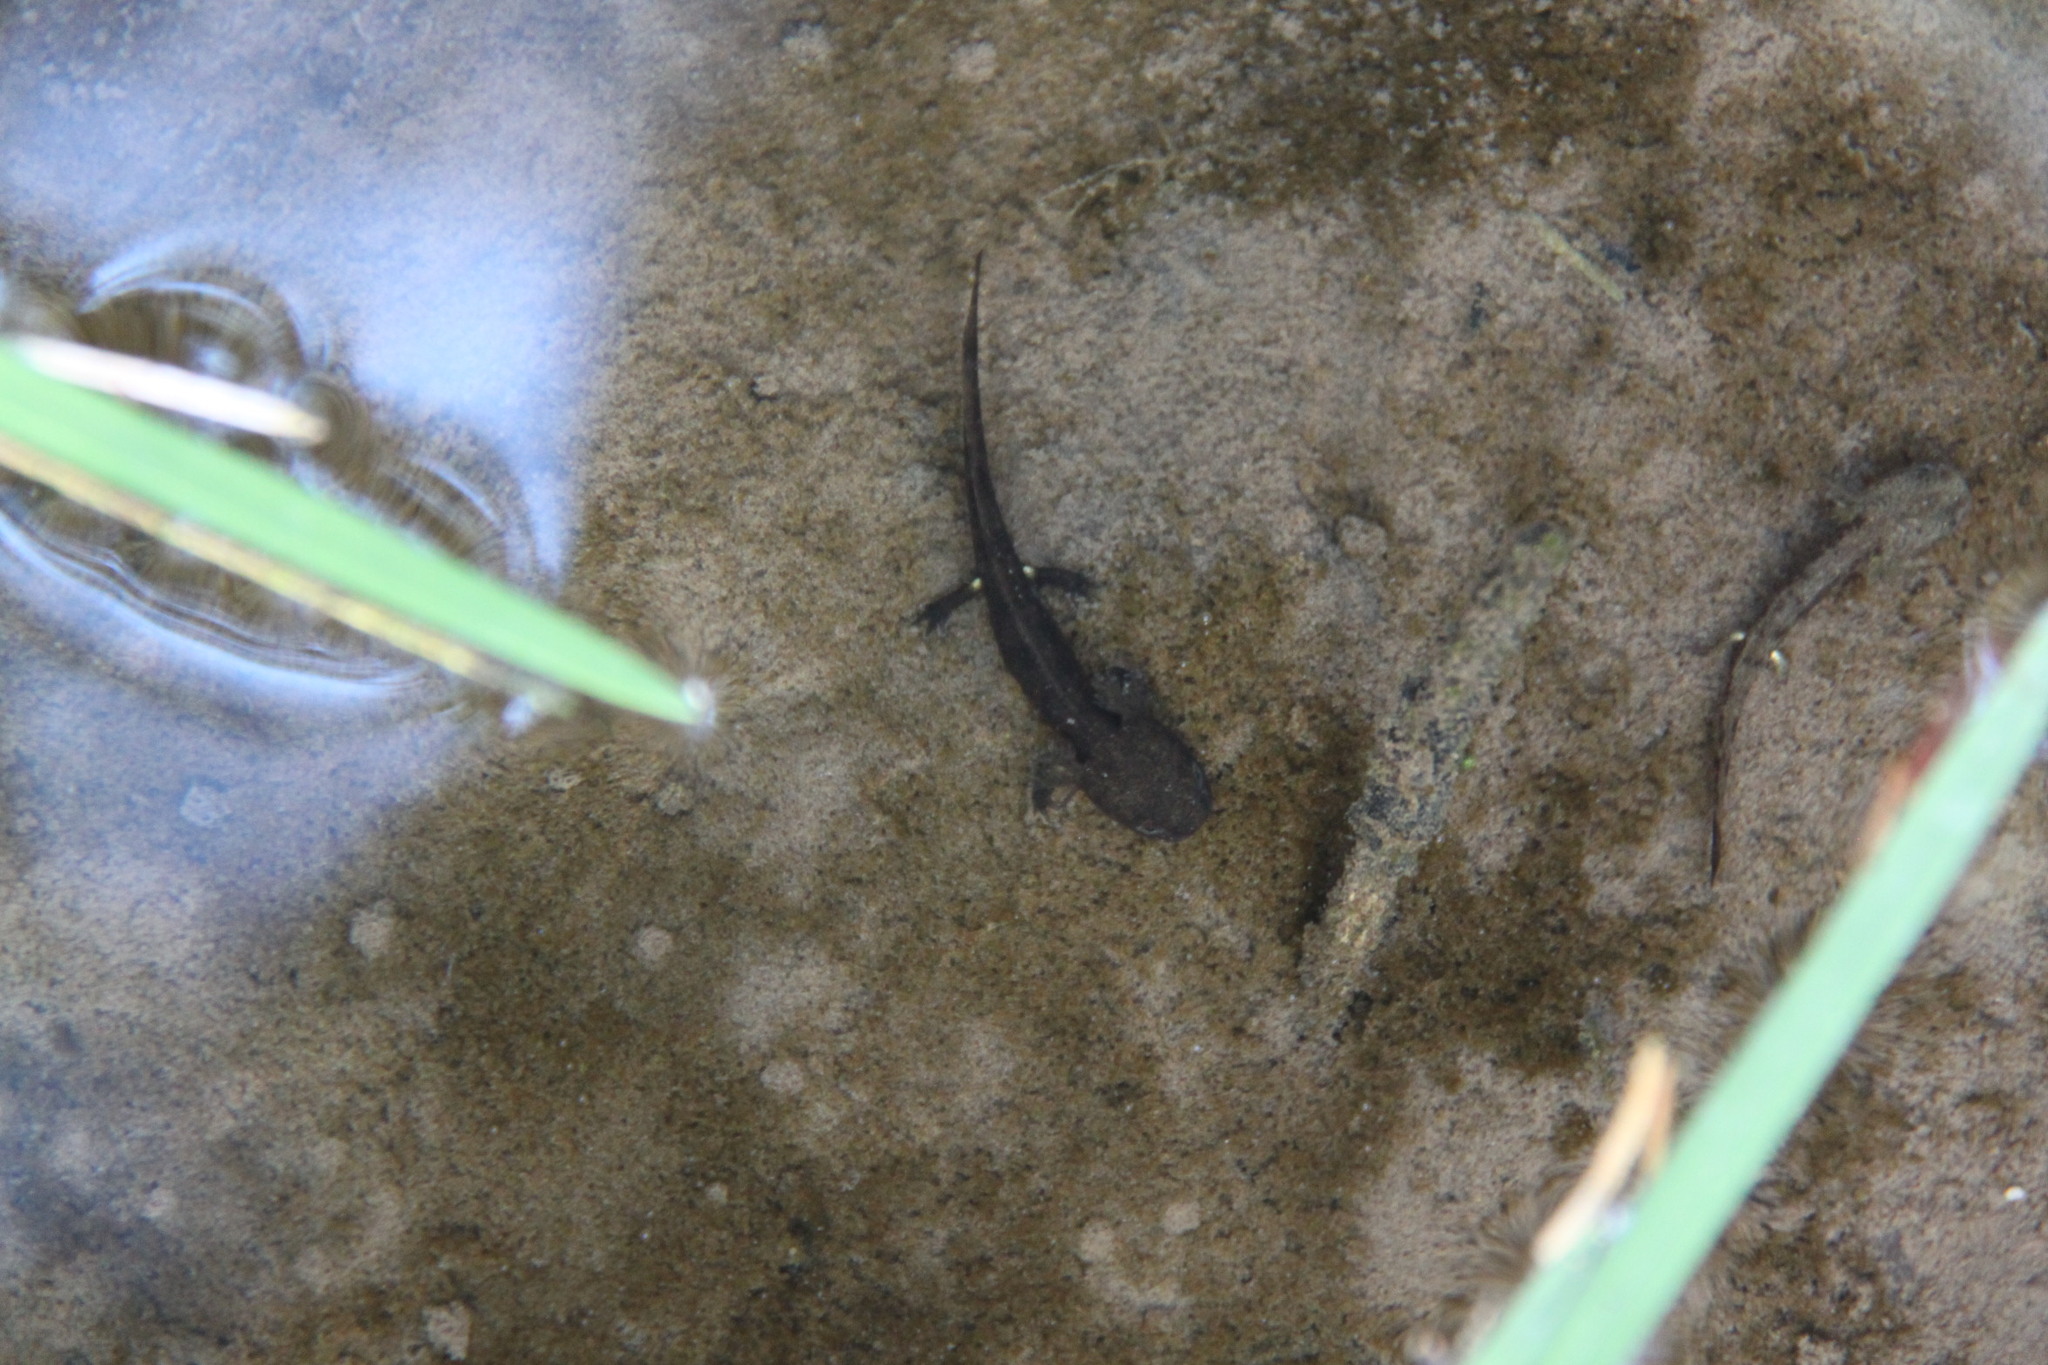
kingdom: Animalia
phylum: Chordata
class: Amphibia
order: Caudata
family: Salamandridae
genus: Salamandra
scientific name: Salamandra salamandra
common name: Fire salamander
